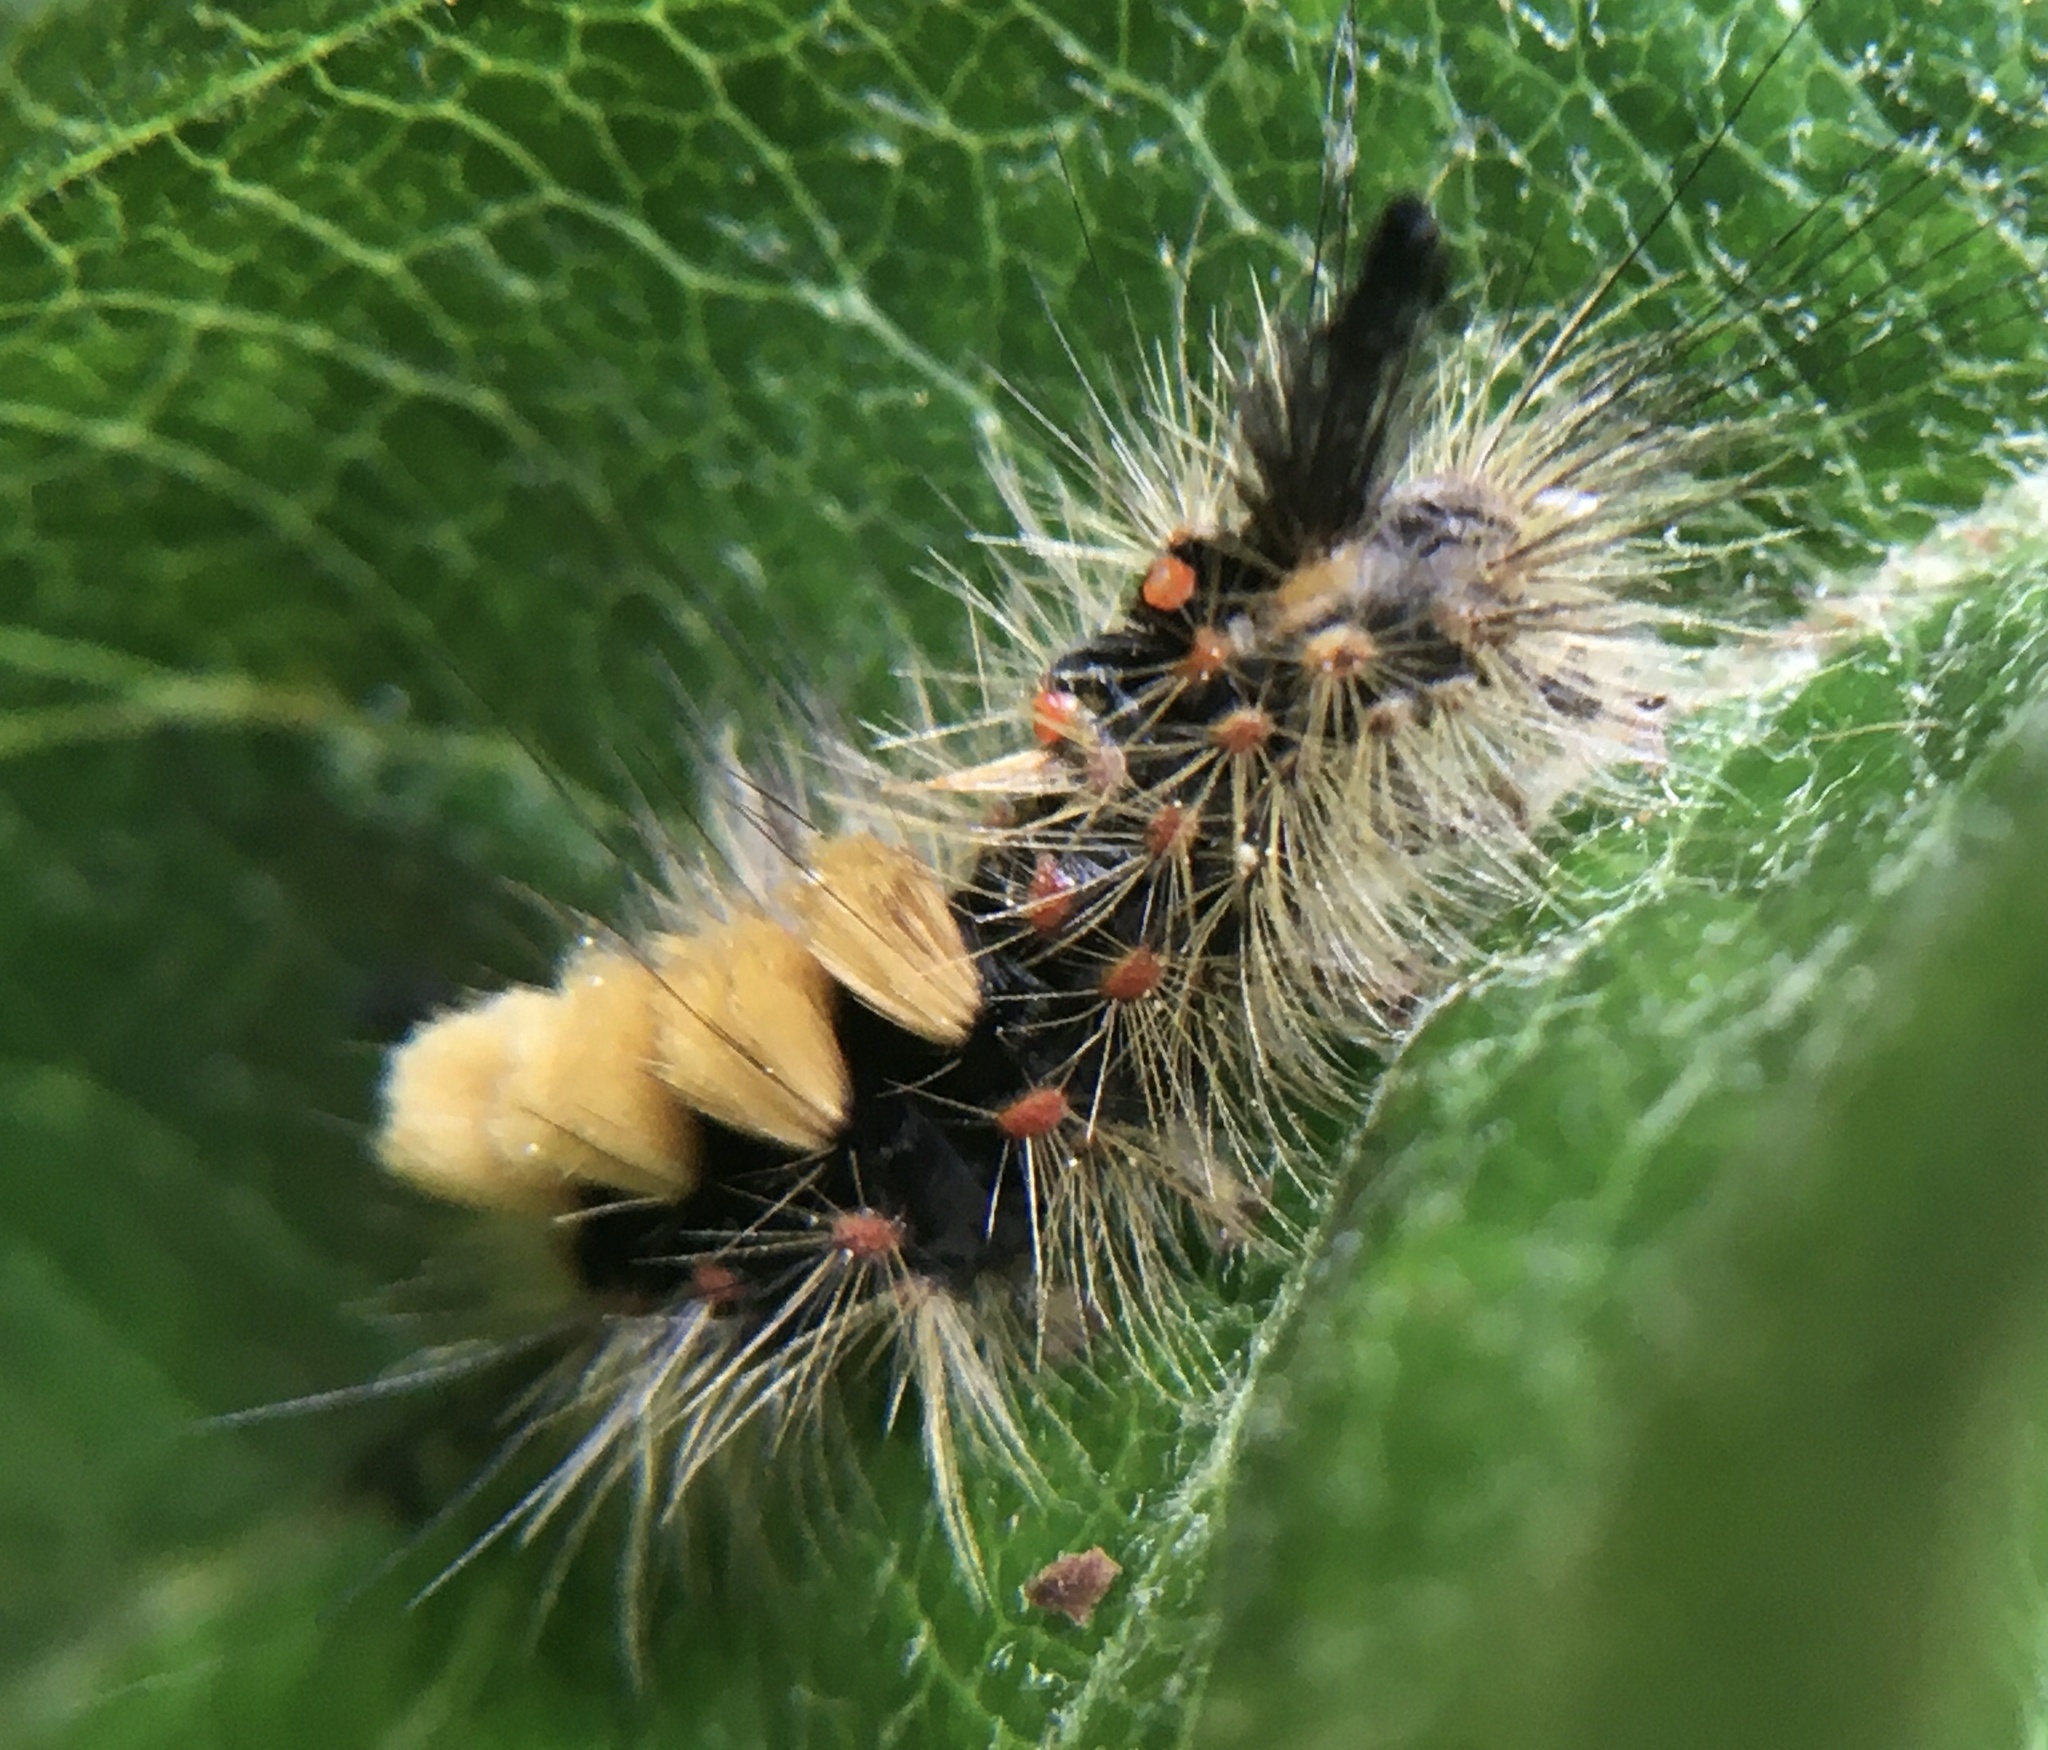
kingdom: Animalia
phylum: Arthropoda
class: Insecta
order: Lepidoptera
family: Erebidae
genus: Orgyia
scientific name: Orgyia antiqua
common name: Vapourer
